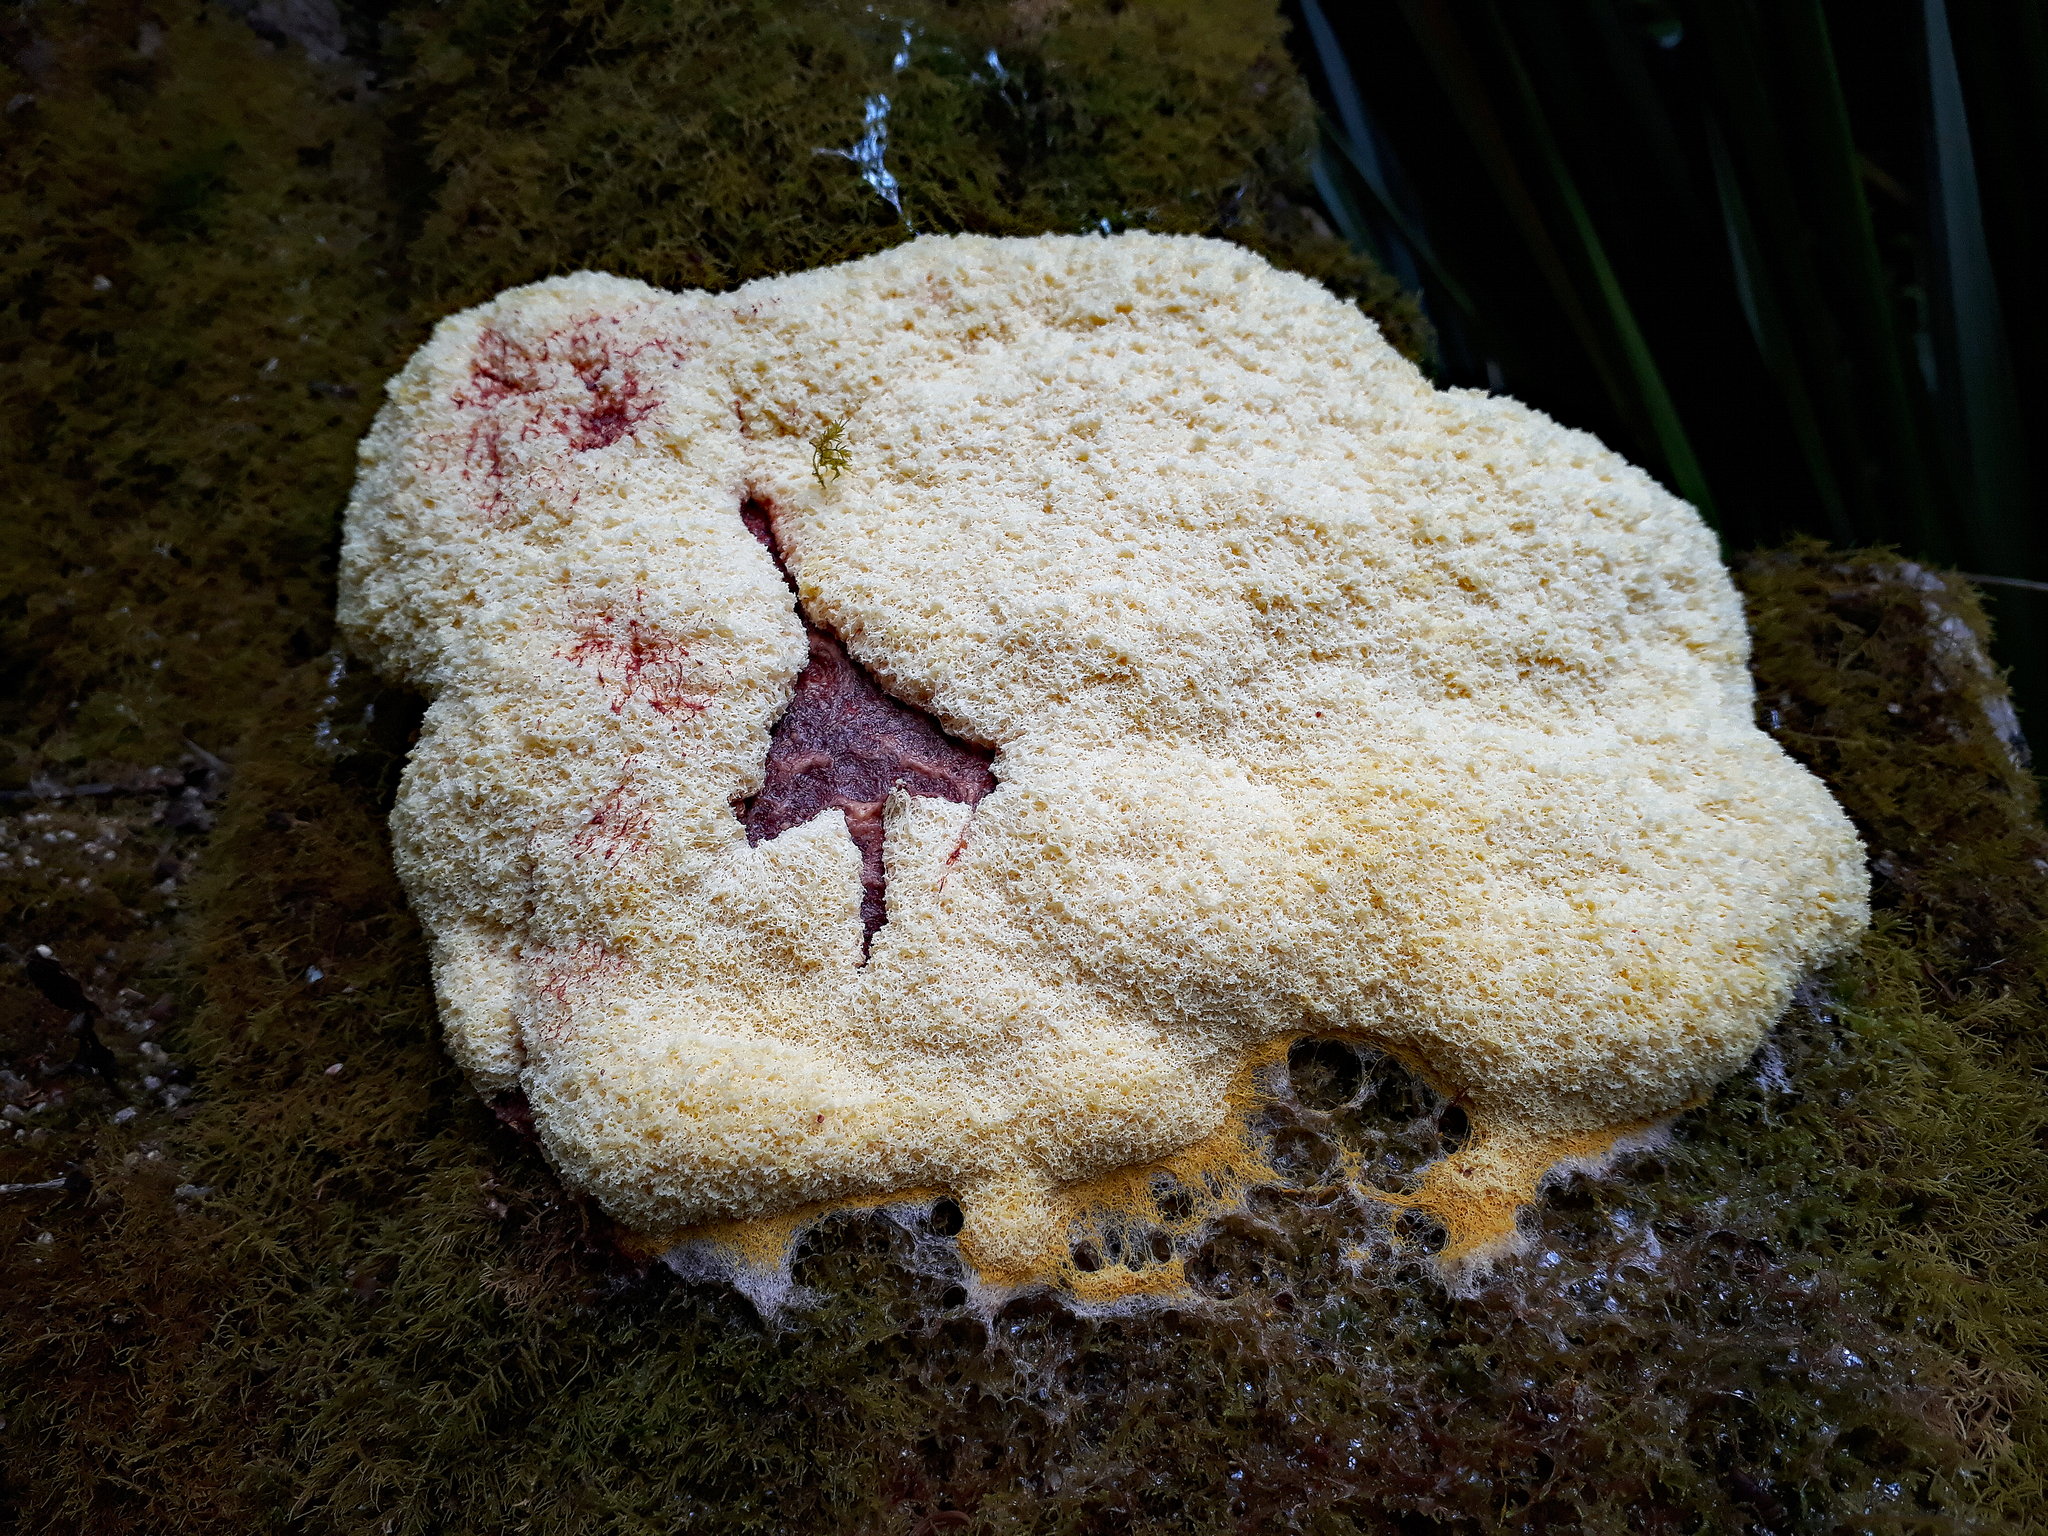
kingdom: Protozoa
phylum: Mycetozoa
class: Myxomycetes
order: Physarales
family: Physaraceae
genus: Fuligo
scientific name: Fuligo septica
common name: Dog vomit slime mold
